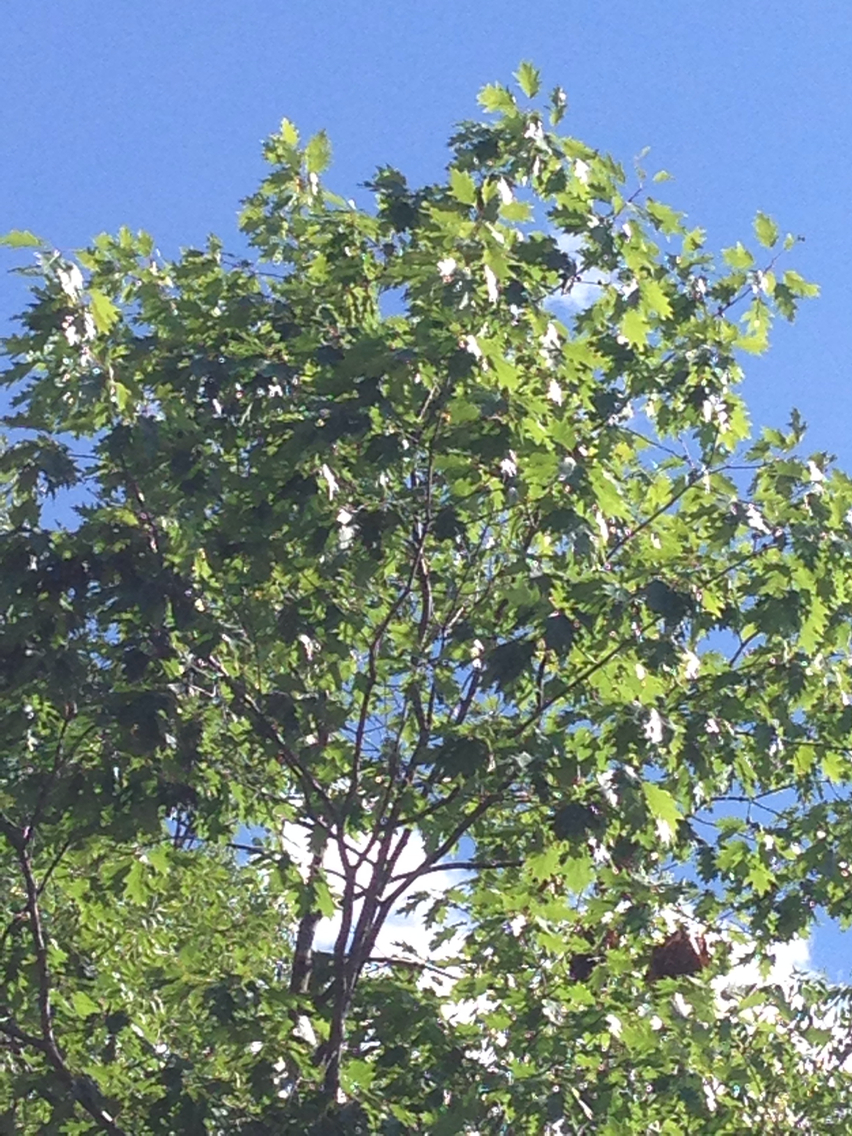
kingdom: Plantae
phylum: Tracheophyta
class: Magnoliopsida
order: Fagales
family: Fagaceae
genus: Quercus
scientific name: Quercus rubra
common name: Red oak
